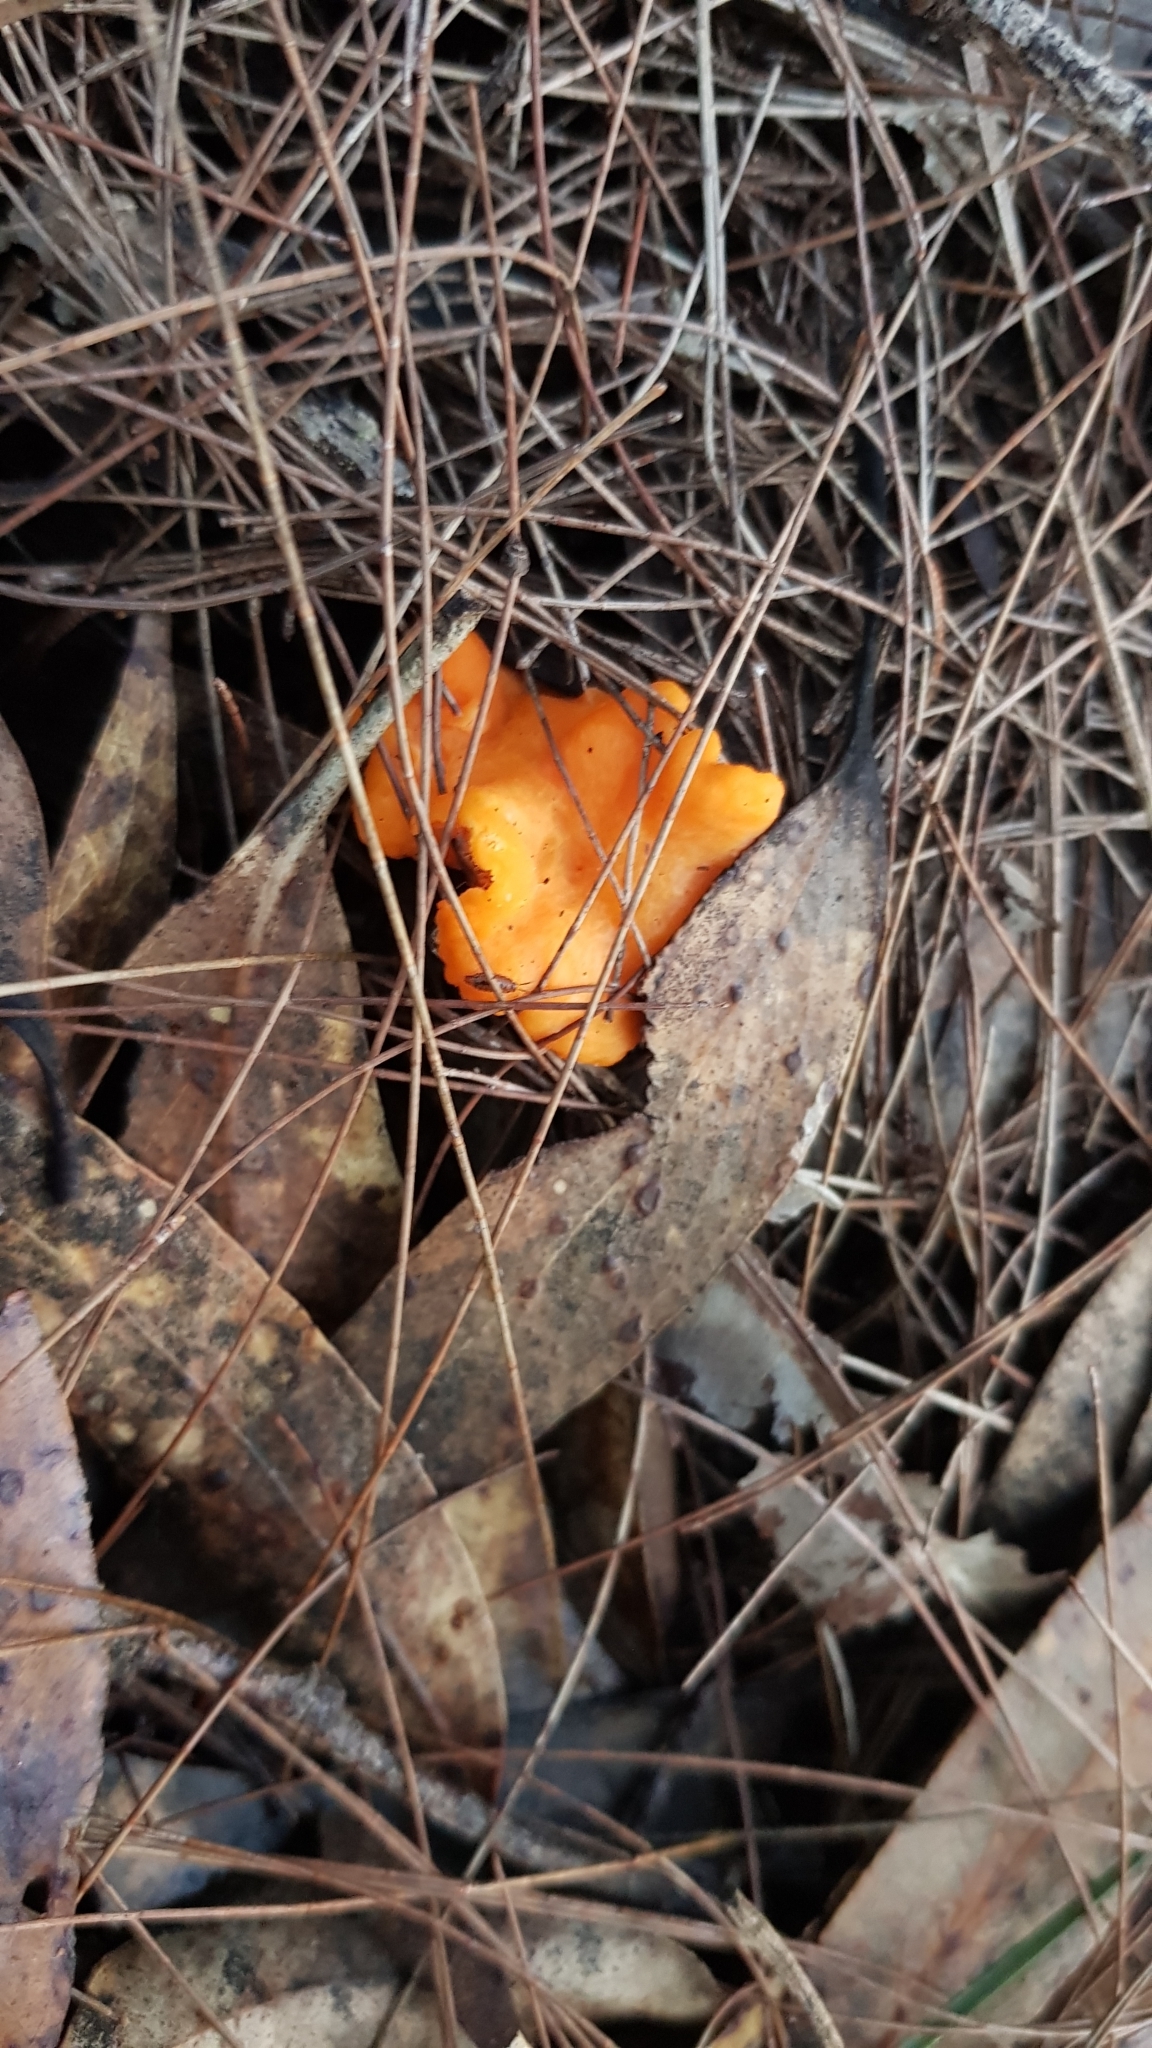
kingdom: Fungi
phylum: Basidiomycota
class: Agaricomycetes
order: Cantharellales
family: Hydnaceae
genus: Cantharellus
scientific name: Cantharellus
